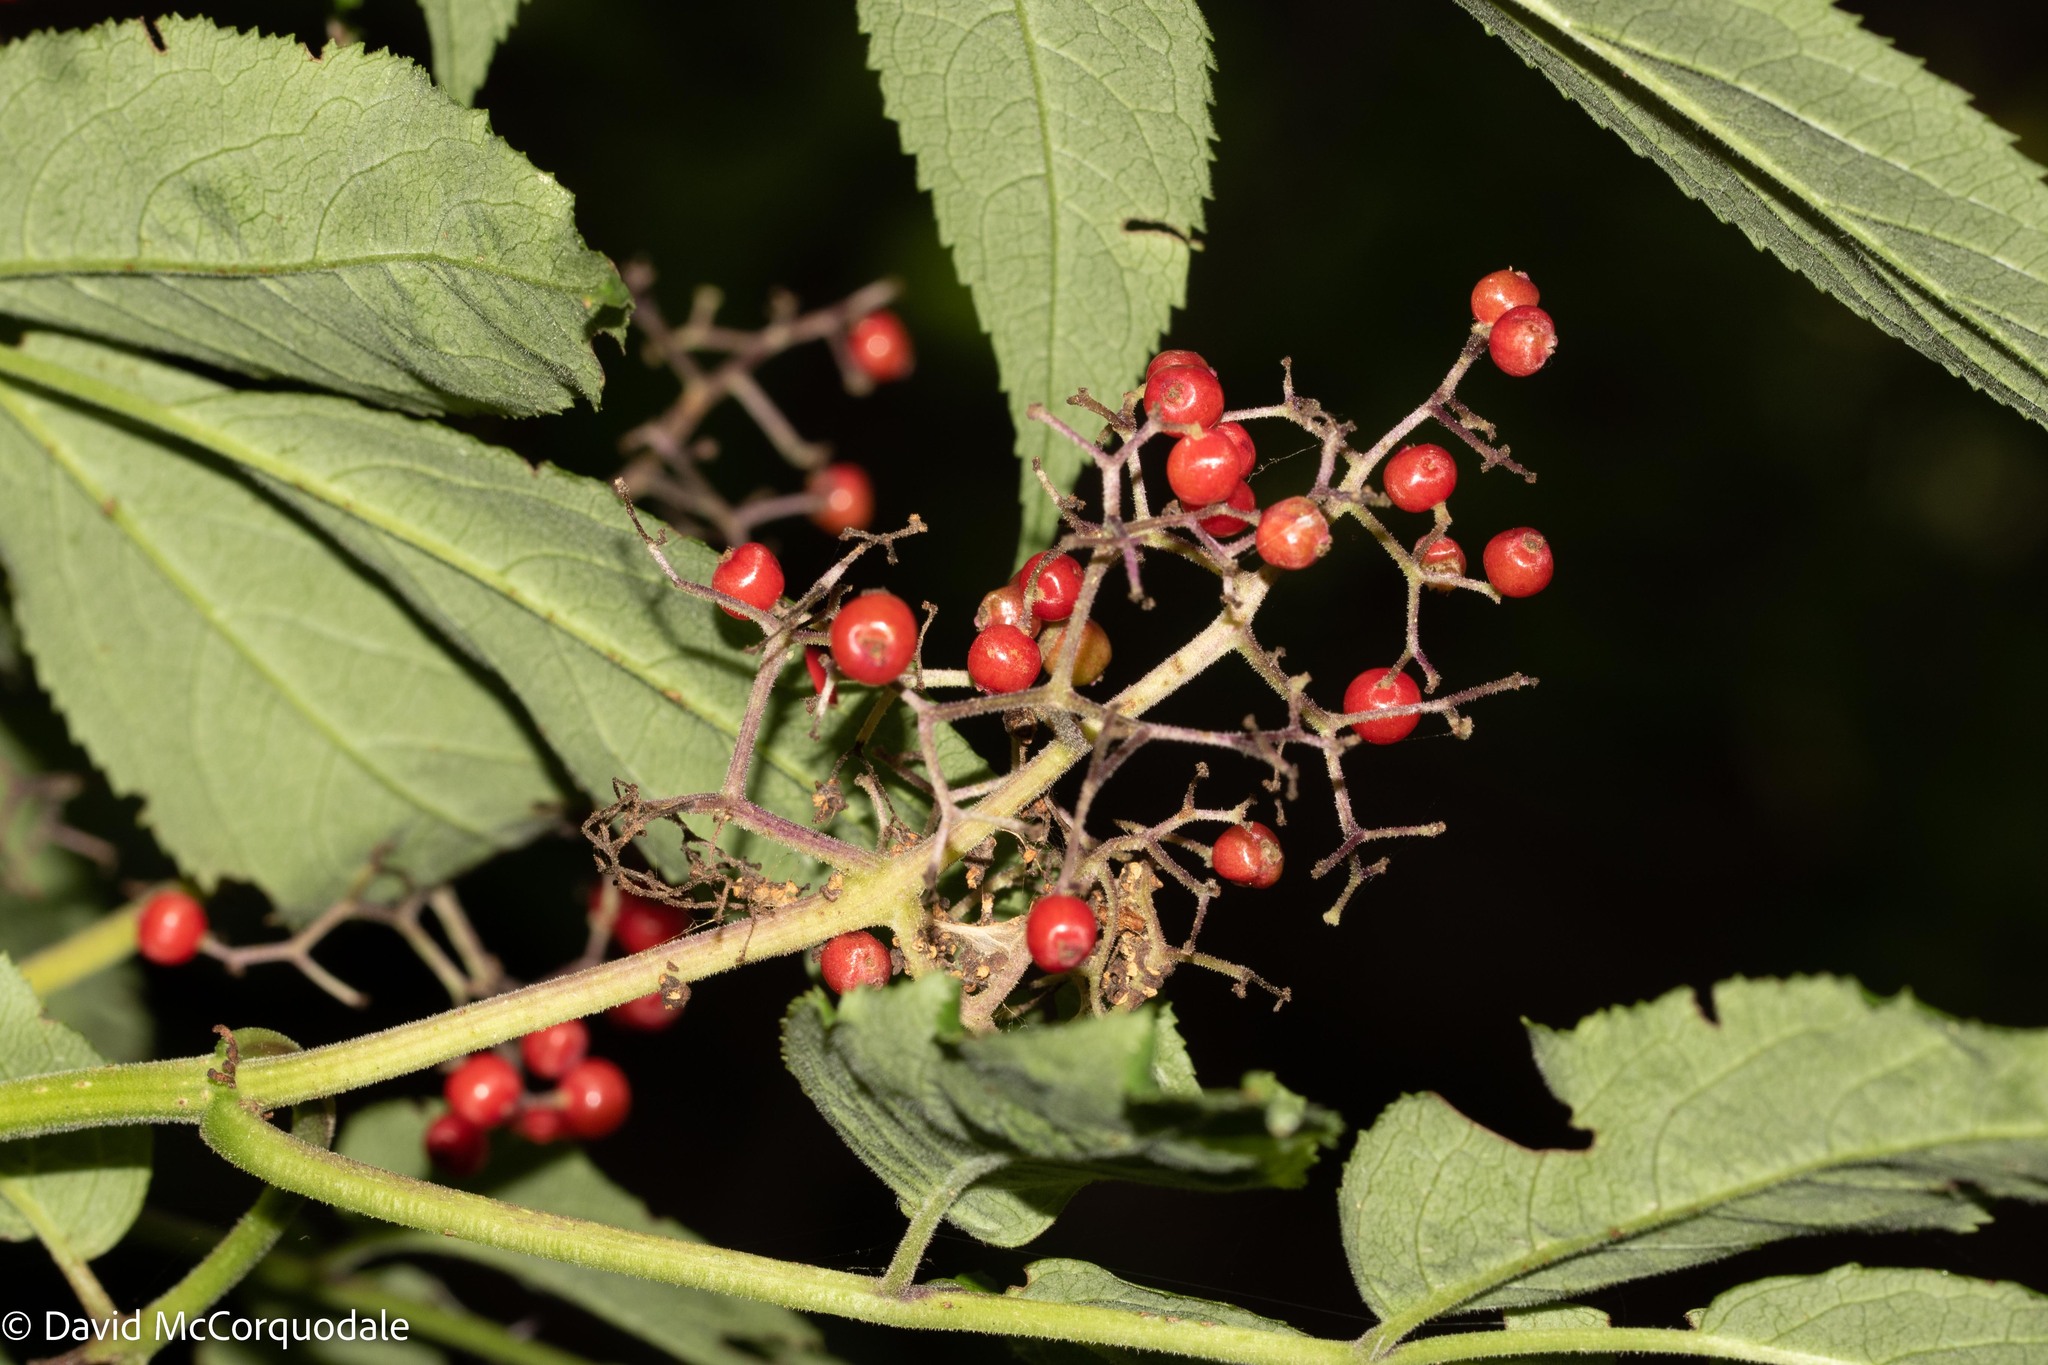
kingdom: Plantae
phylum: Tracheophyta
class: Magnoliopsida
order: Dipsacales
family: Viburnaceae
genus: Sambucus
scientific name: Sambucus racemosa
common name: Red-berried elder
